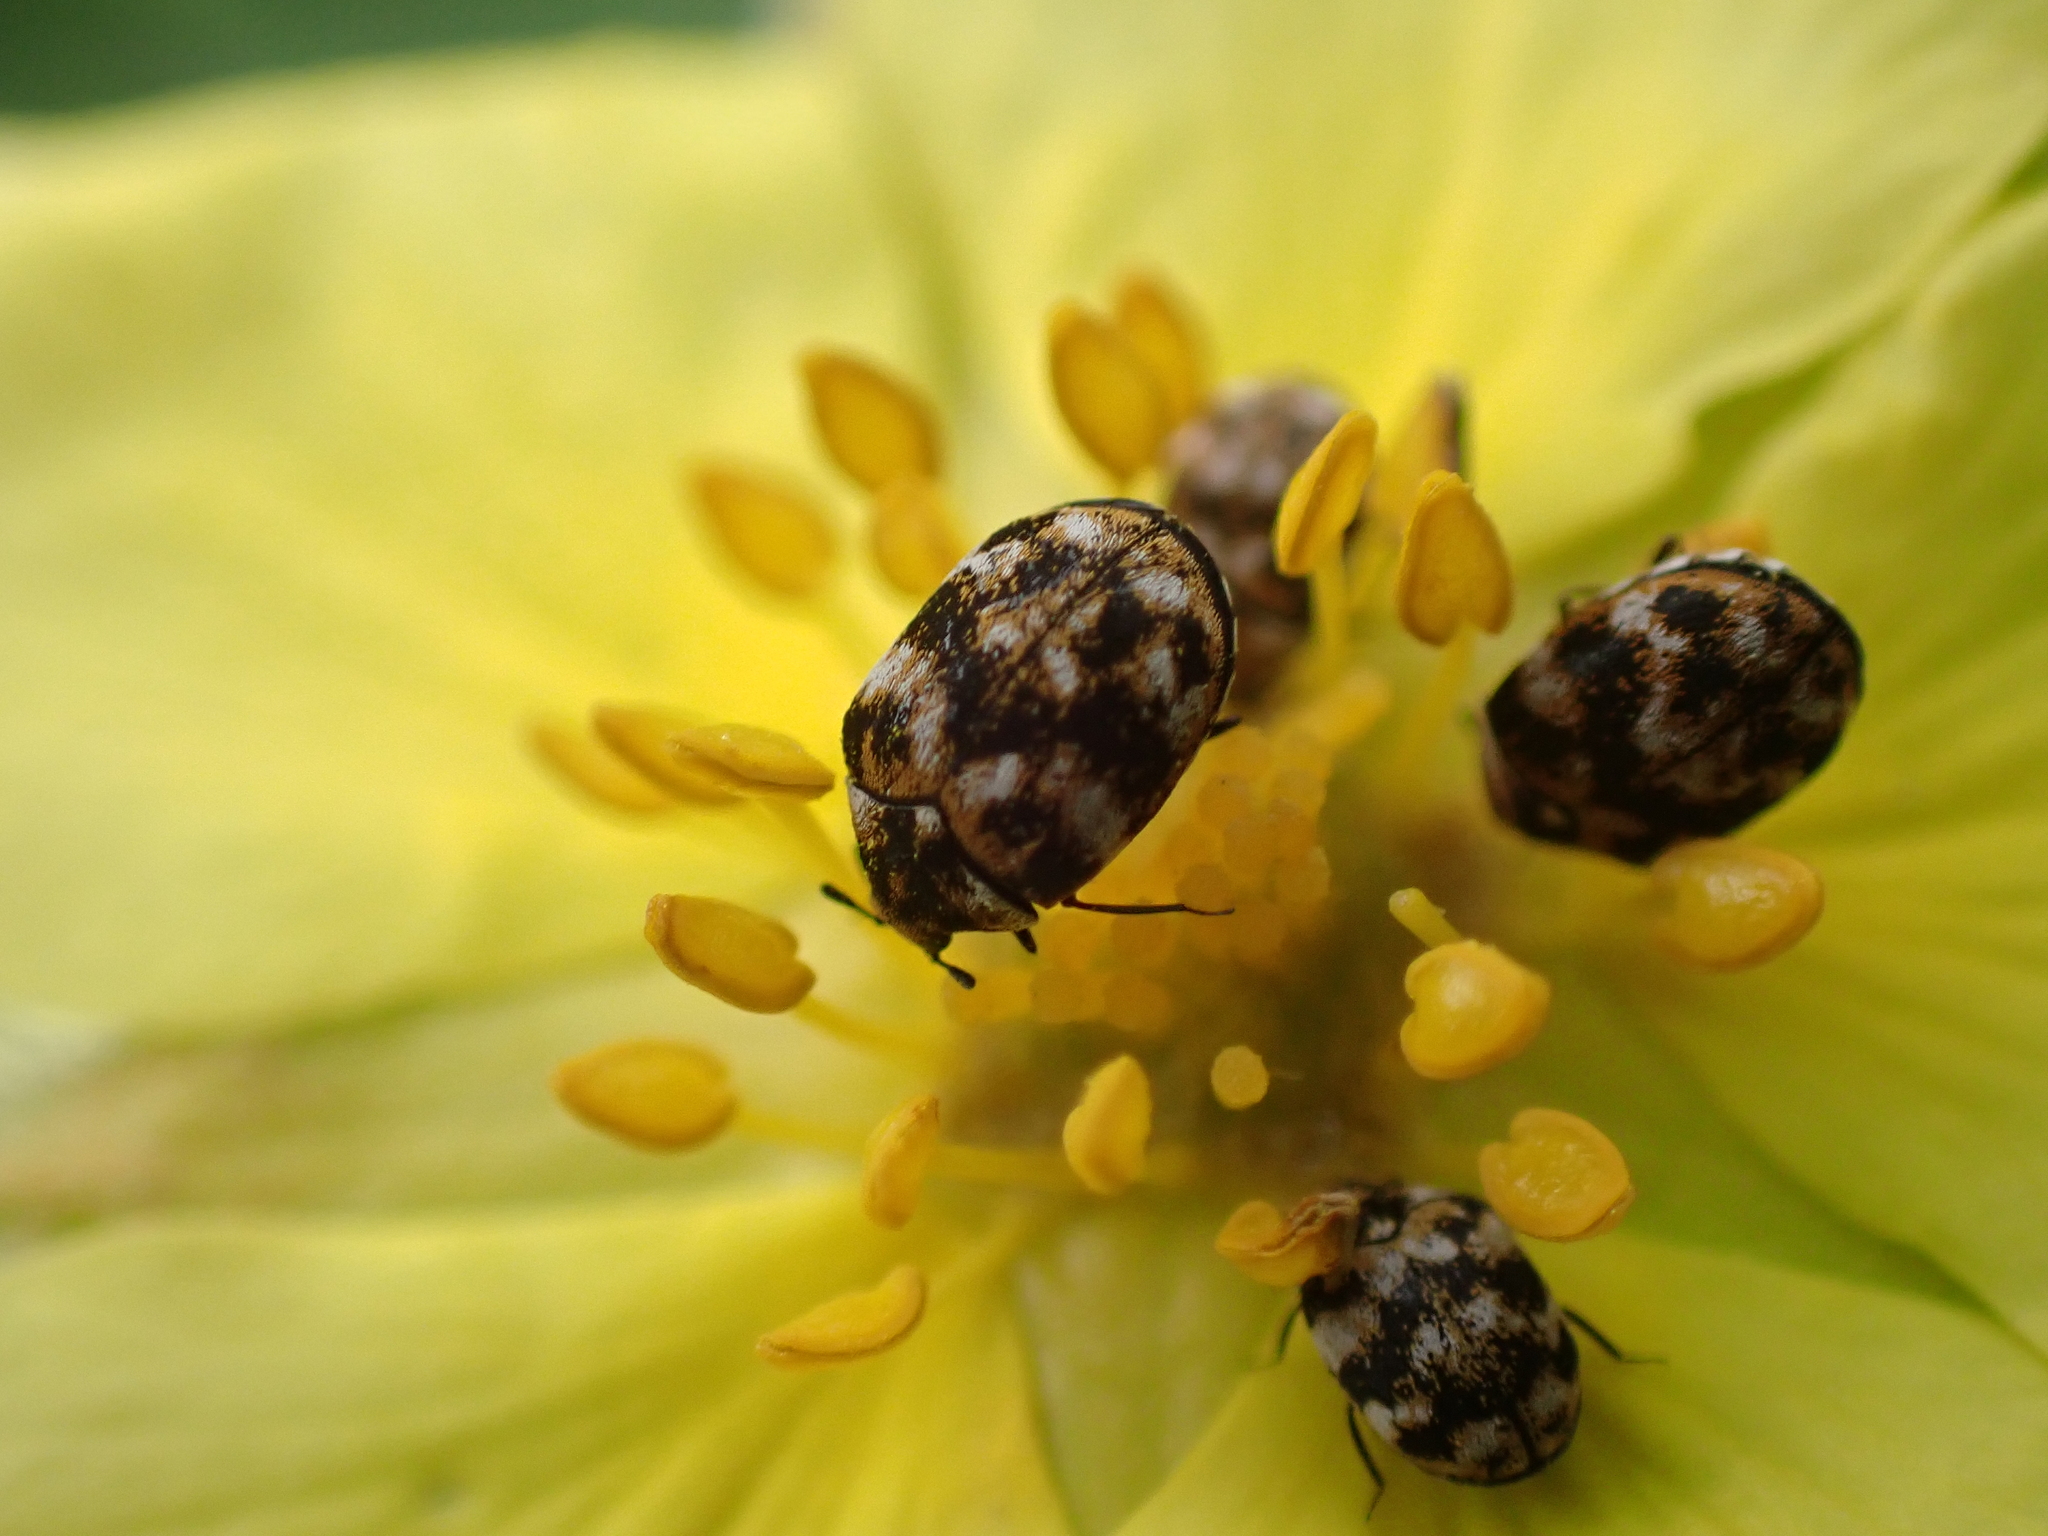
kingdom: Animalia
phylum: Arthropoda
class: Insecta
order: Coleoptera
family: Dermestidae
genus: Anthrenus
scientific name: Anthrenus verbasci
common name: Varied carpet beetle
